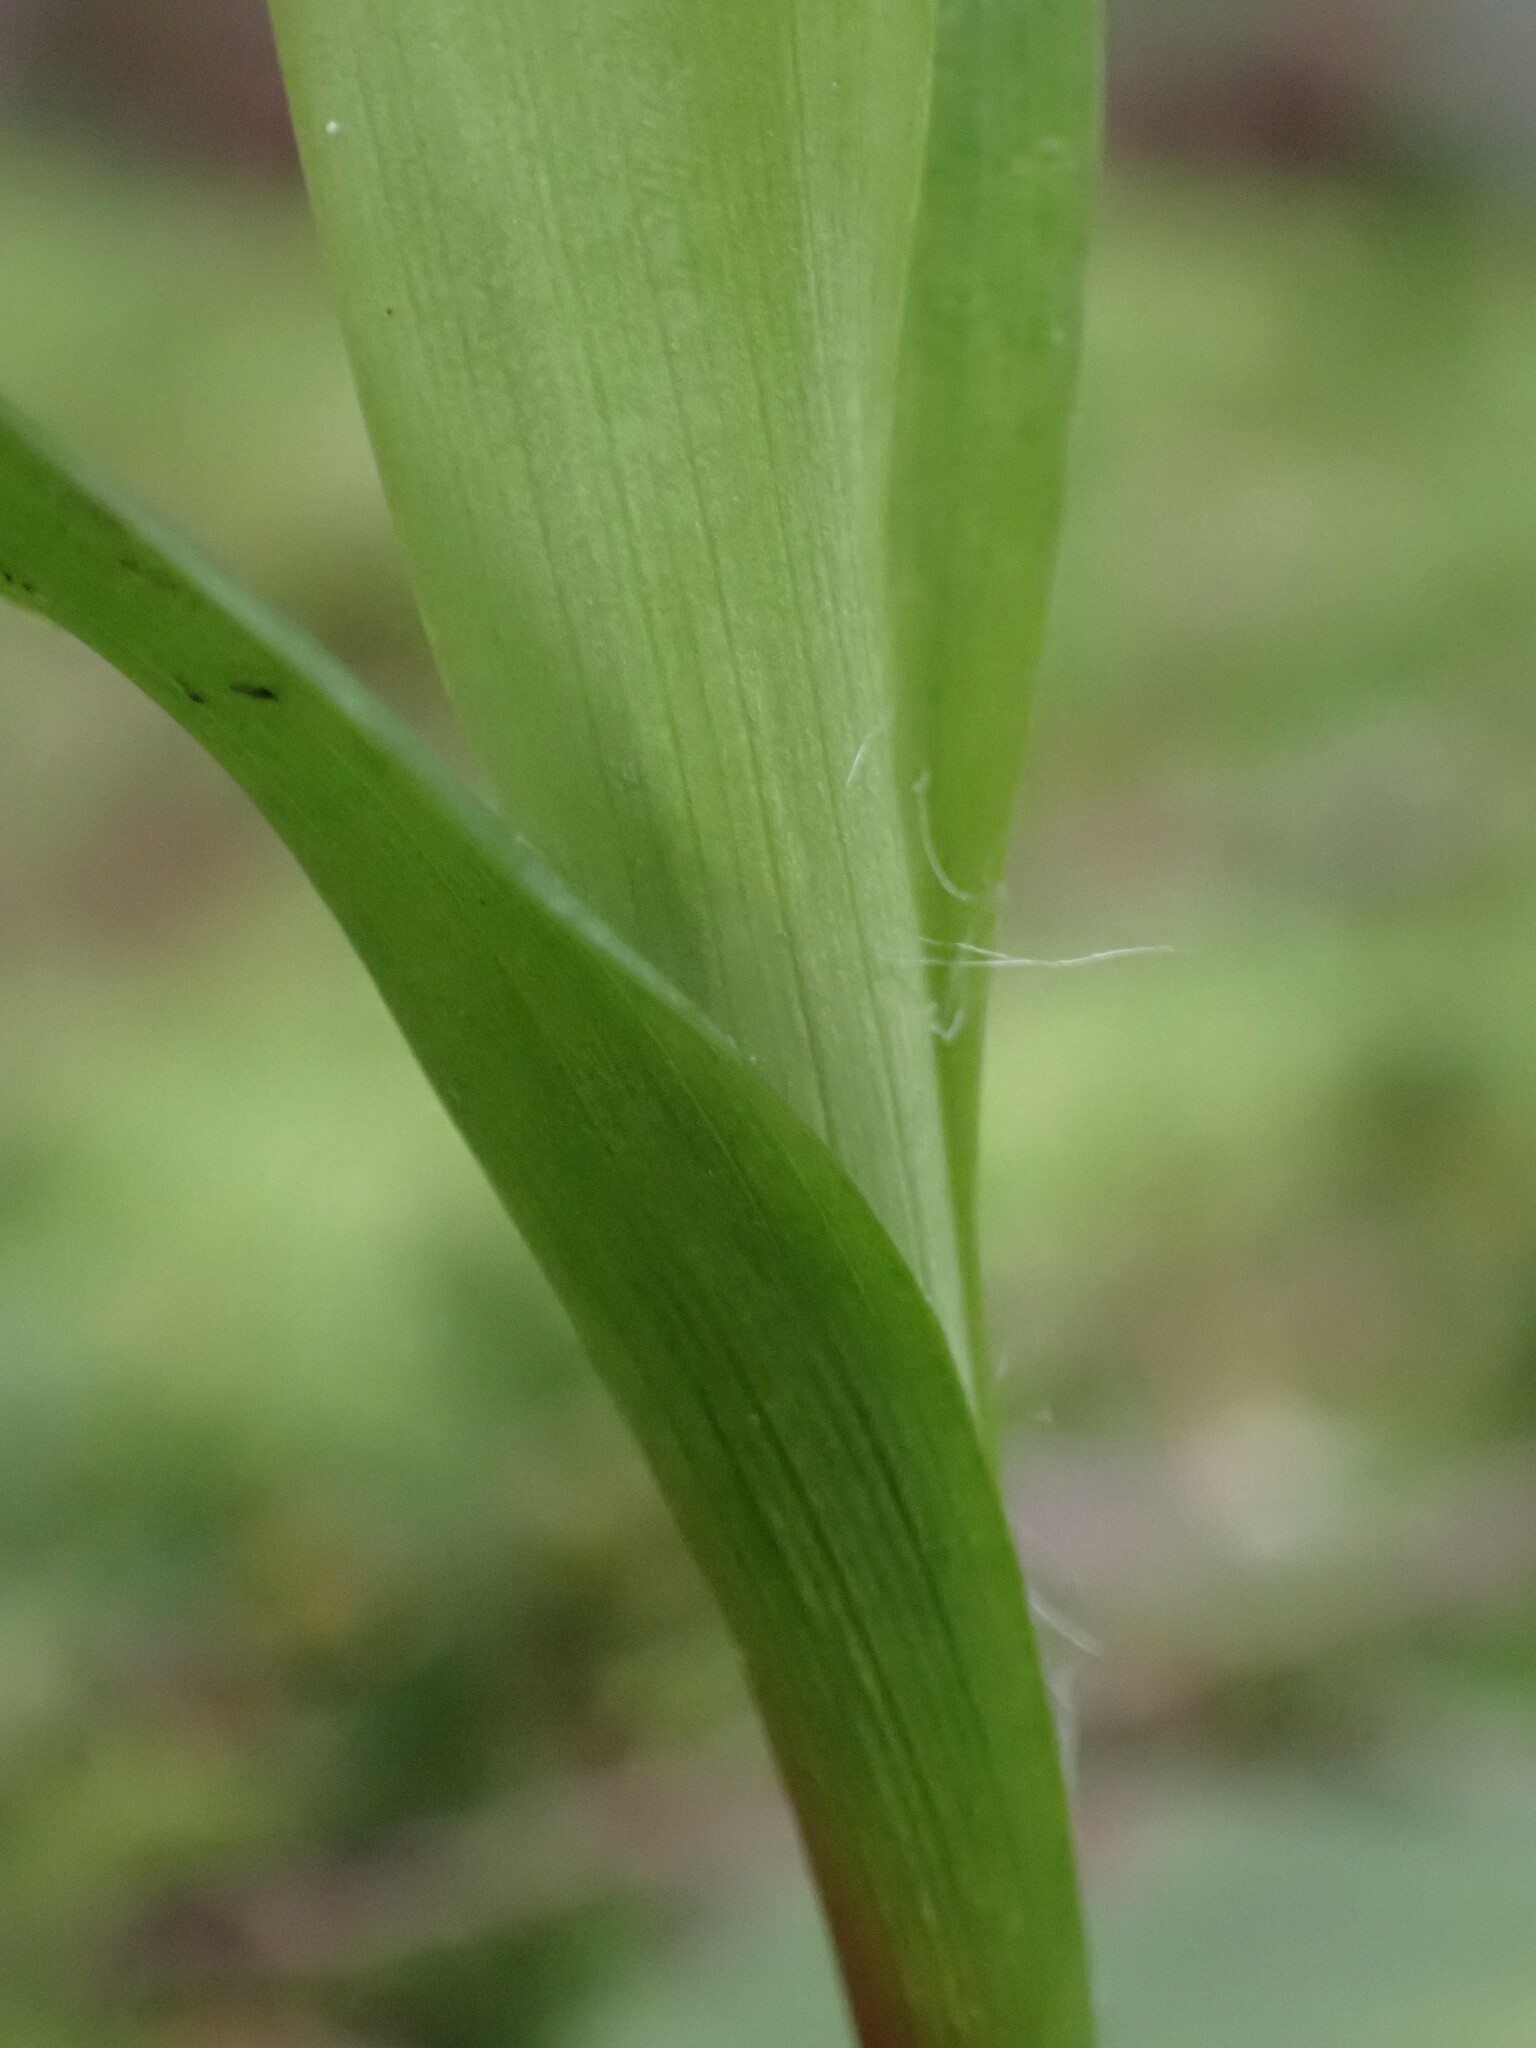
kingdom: Plantae
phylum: Tracheophyta
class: Liliopsida
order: Poales
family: Juncaceae
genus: Luzula
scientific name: Luzula parviflora
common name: Millet woodrush
